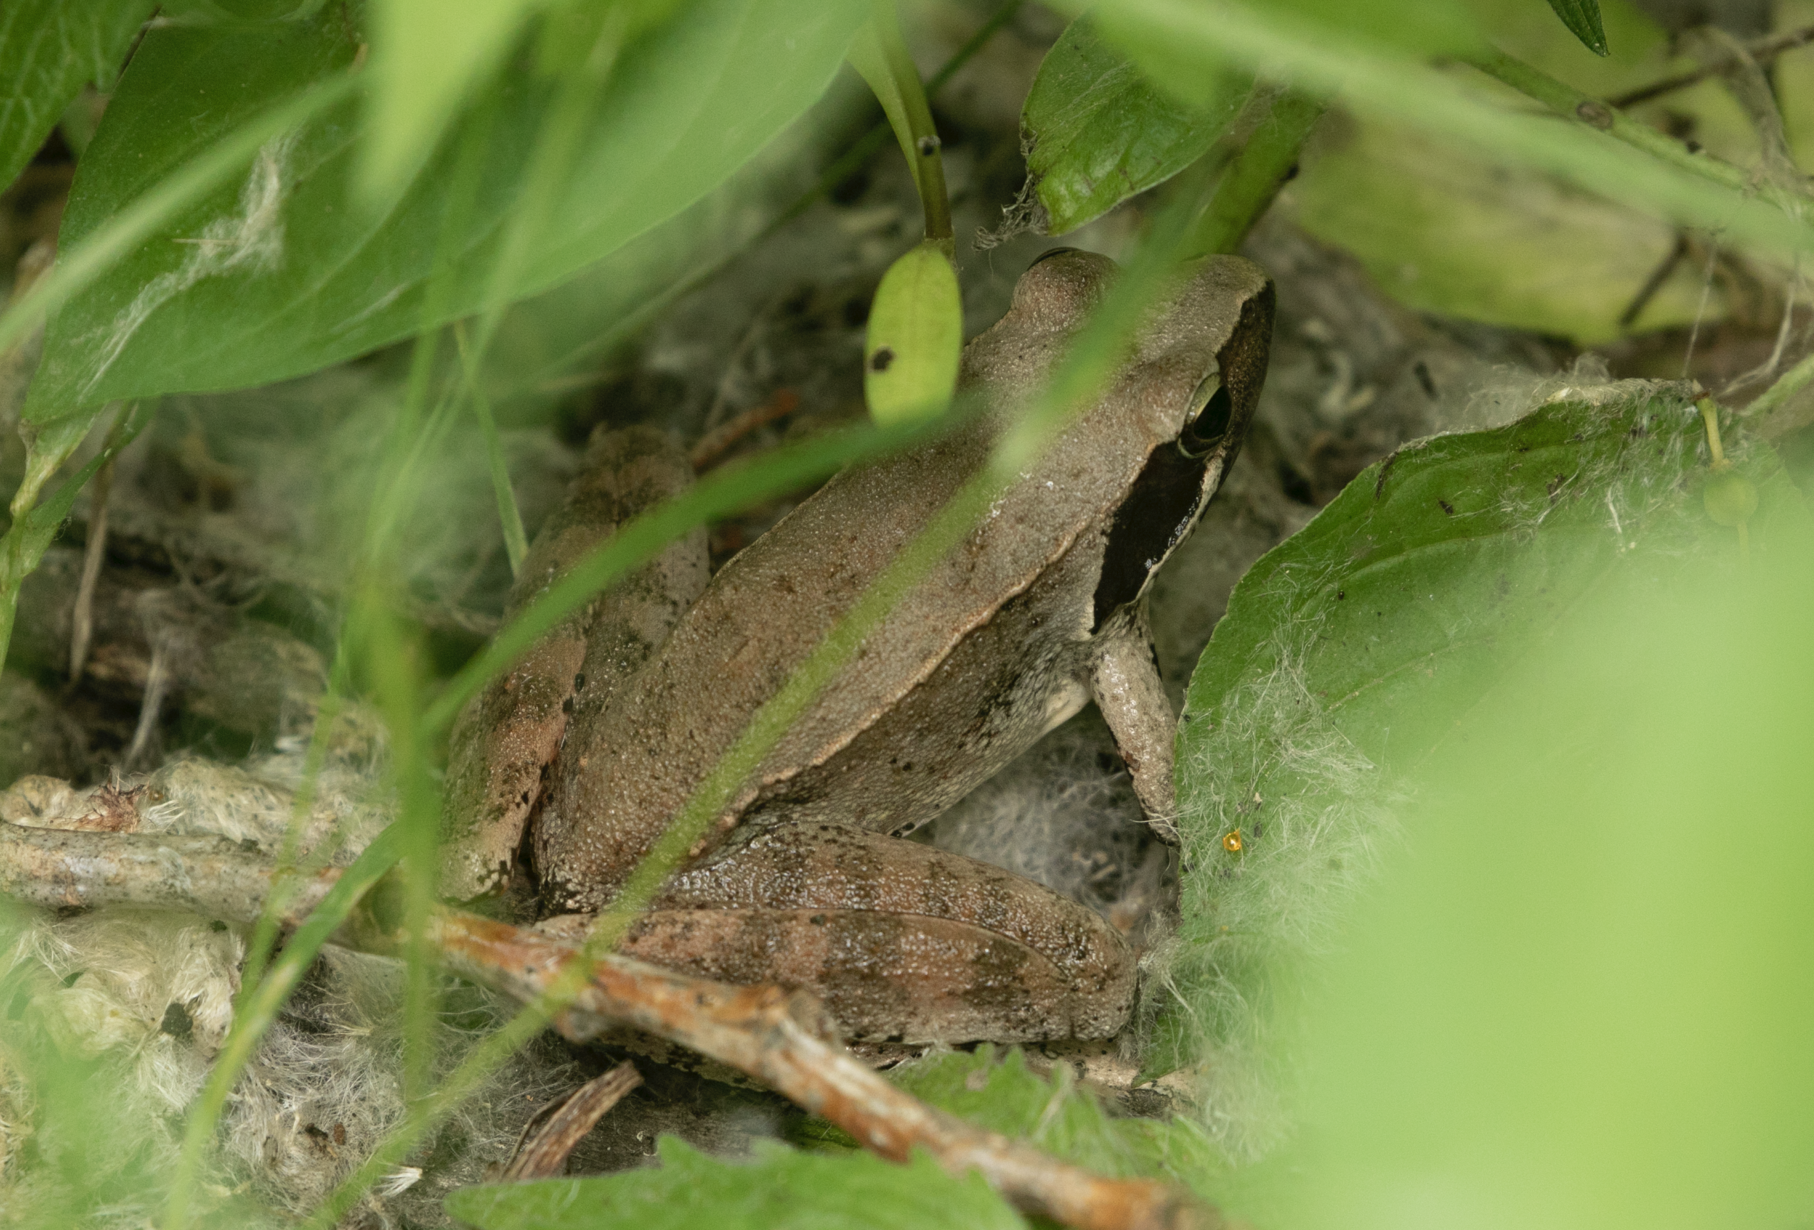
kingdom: Animalia
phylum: Chordata
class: Amphibia
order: Anura
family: Ranidae
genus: Rana
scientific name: Rana latastei
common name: Italian agile frog
